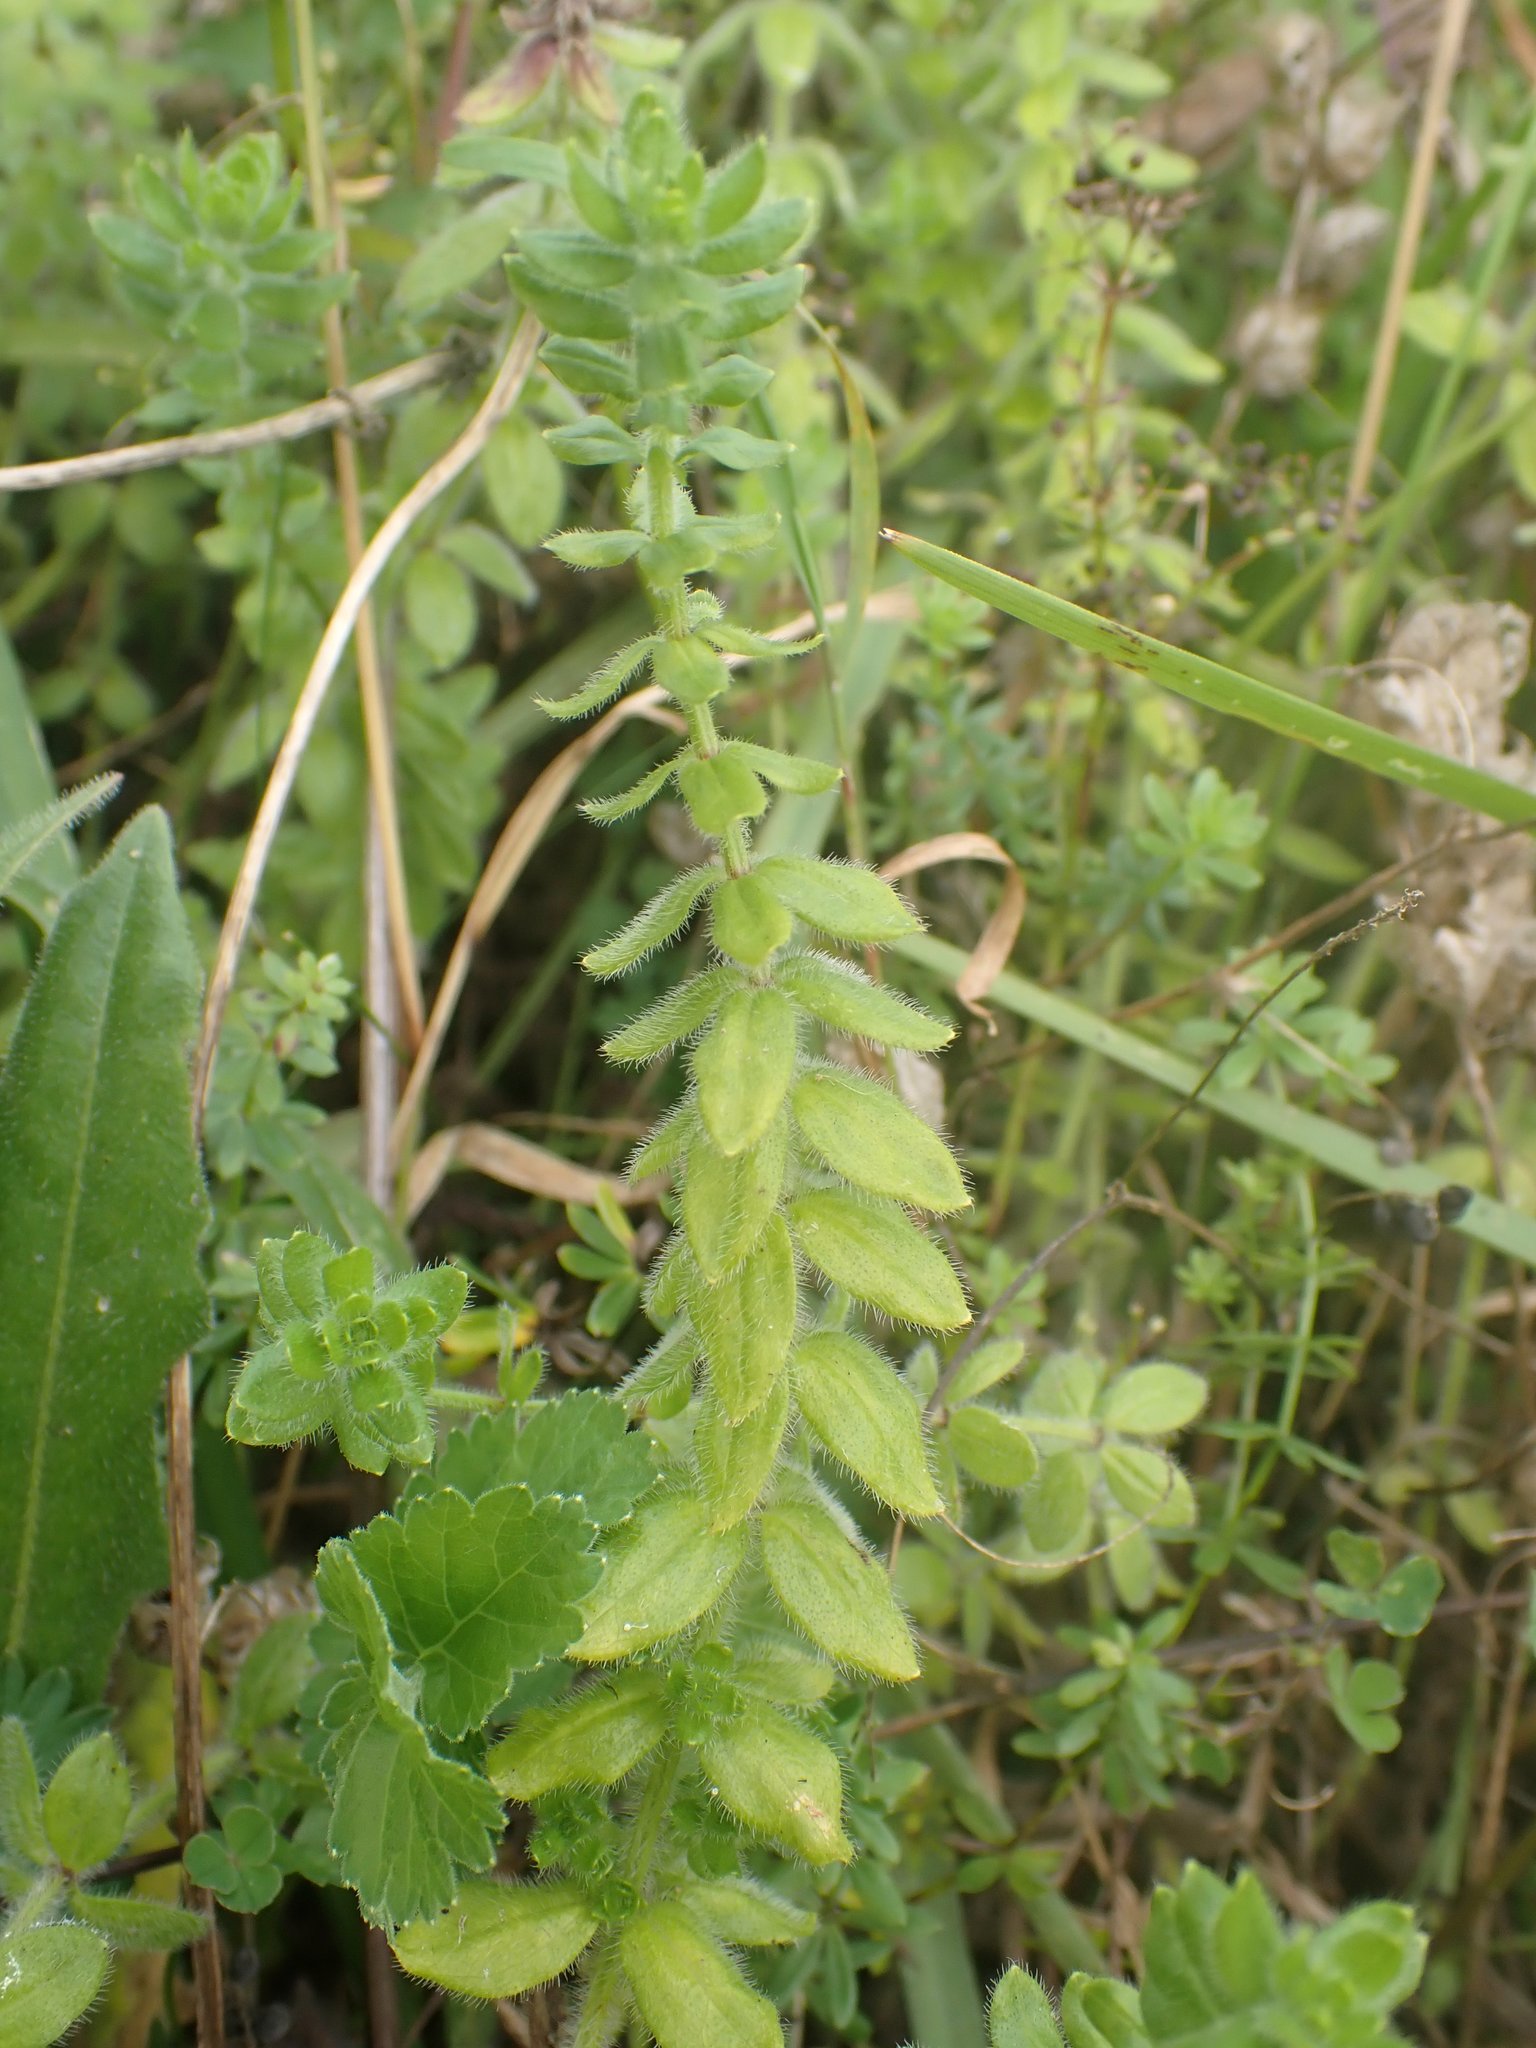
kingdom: Plantae
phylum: Tracheophyta
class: Magnoliopsida
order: Gentianales
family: Rubiaceae
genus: Cruciata
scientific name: Cruciata laevipes
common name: Crosswort
